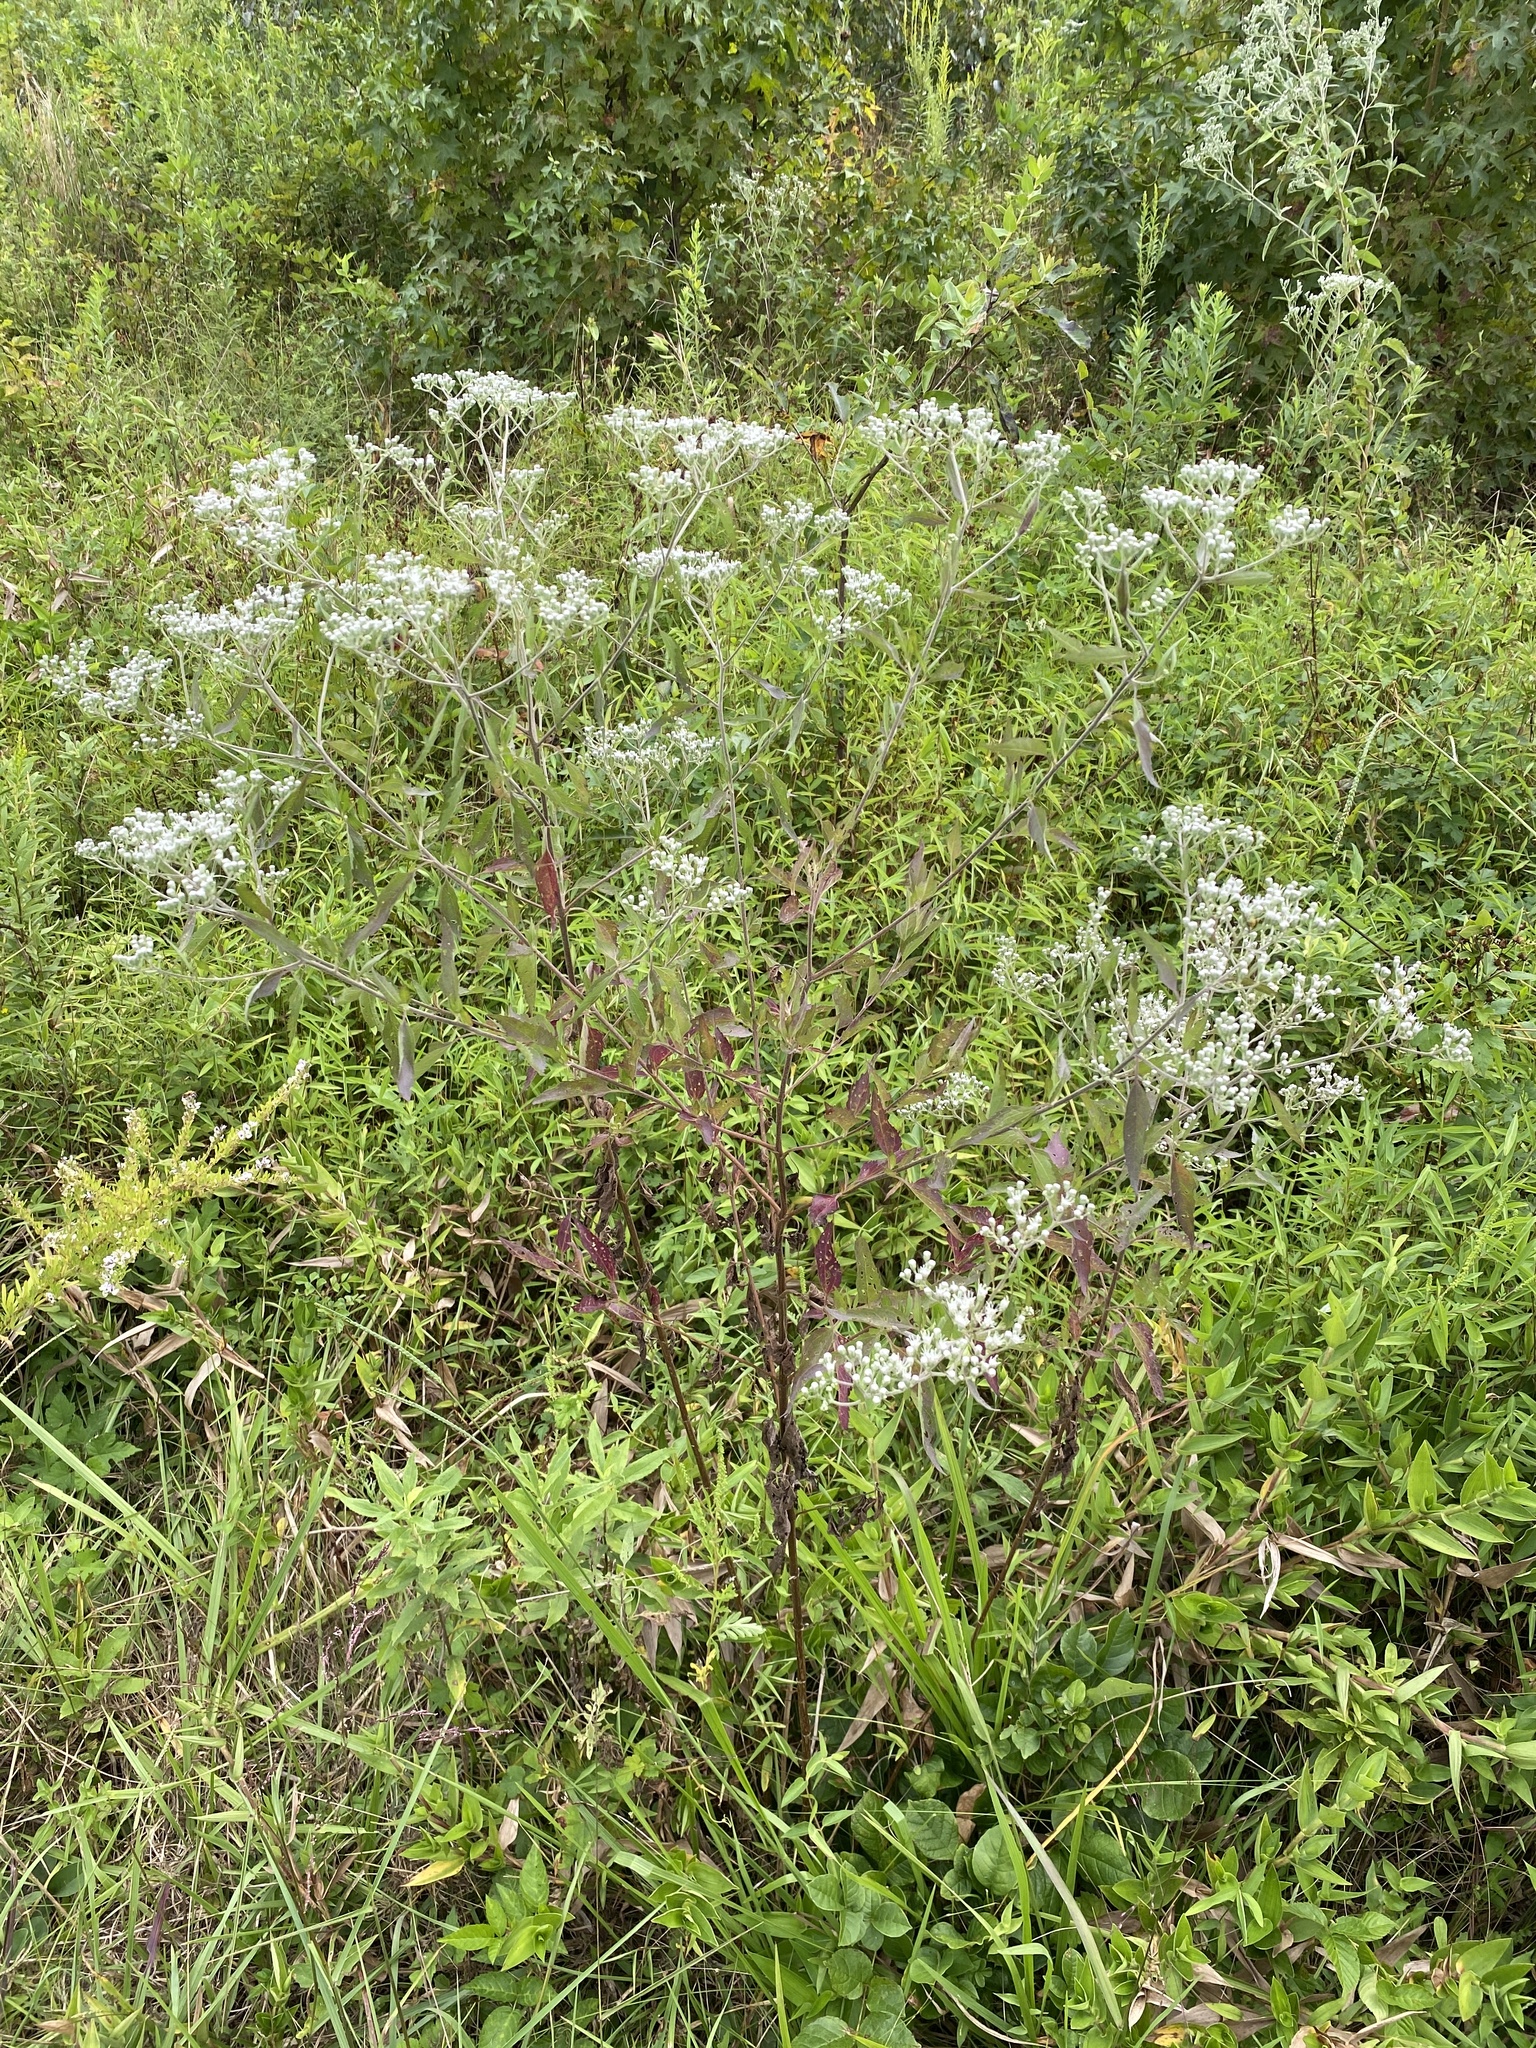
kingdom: Plantae
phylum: Tracheophyta
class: Magnoliopsida
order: Asterales
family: Asteraceae
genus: Eupatorium
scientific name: Eupatorium serotinum
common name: Late boneset
